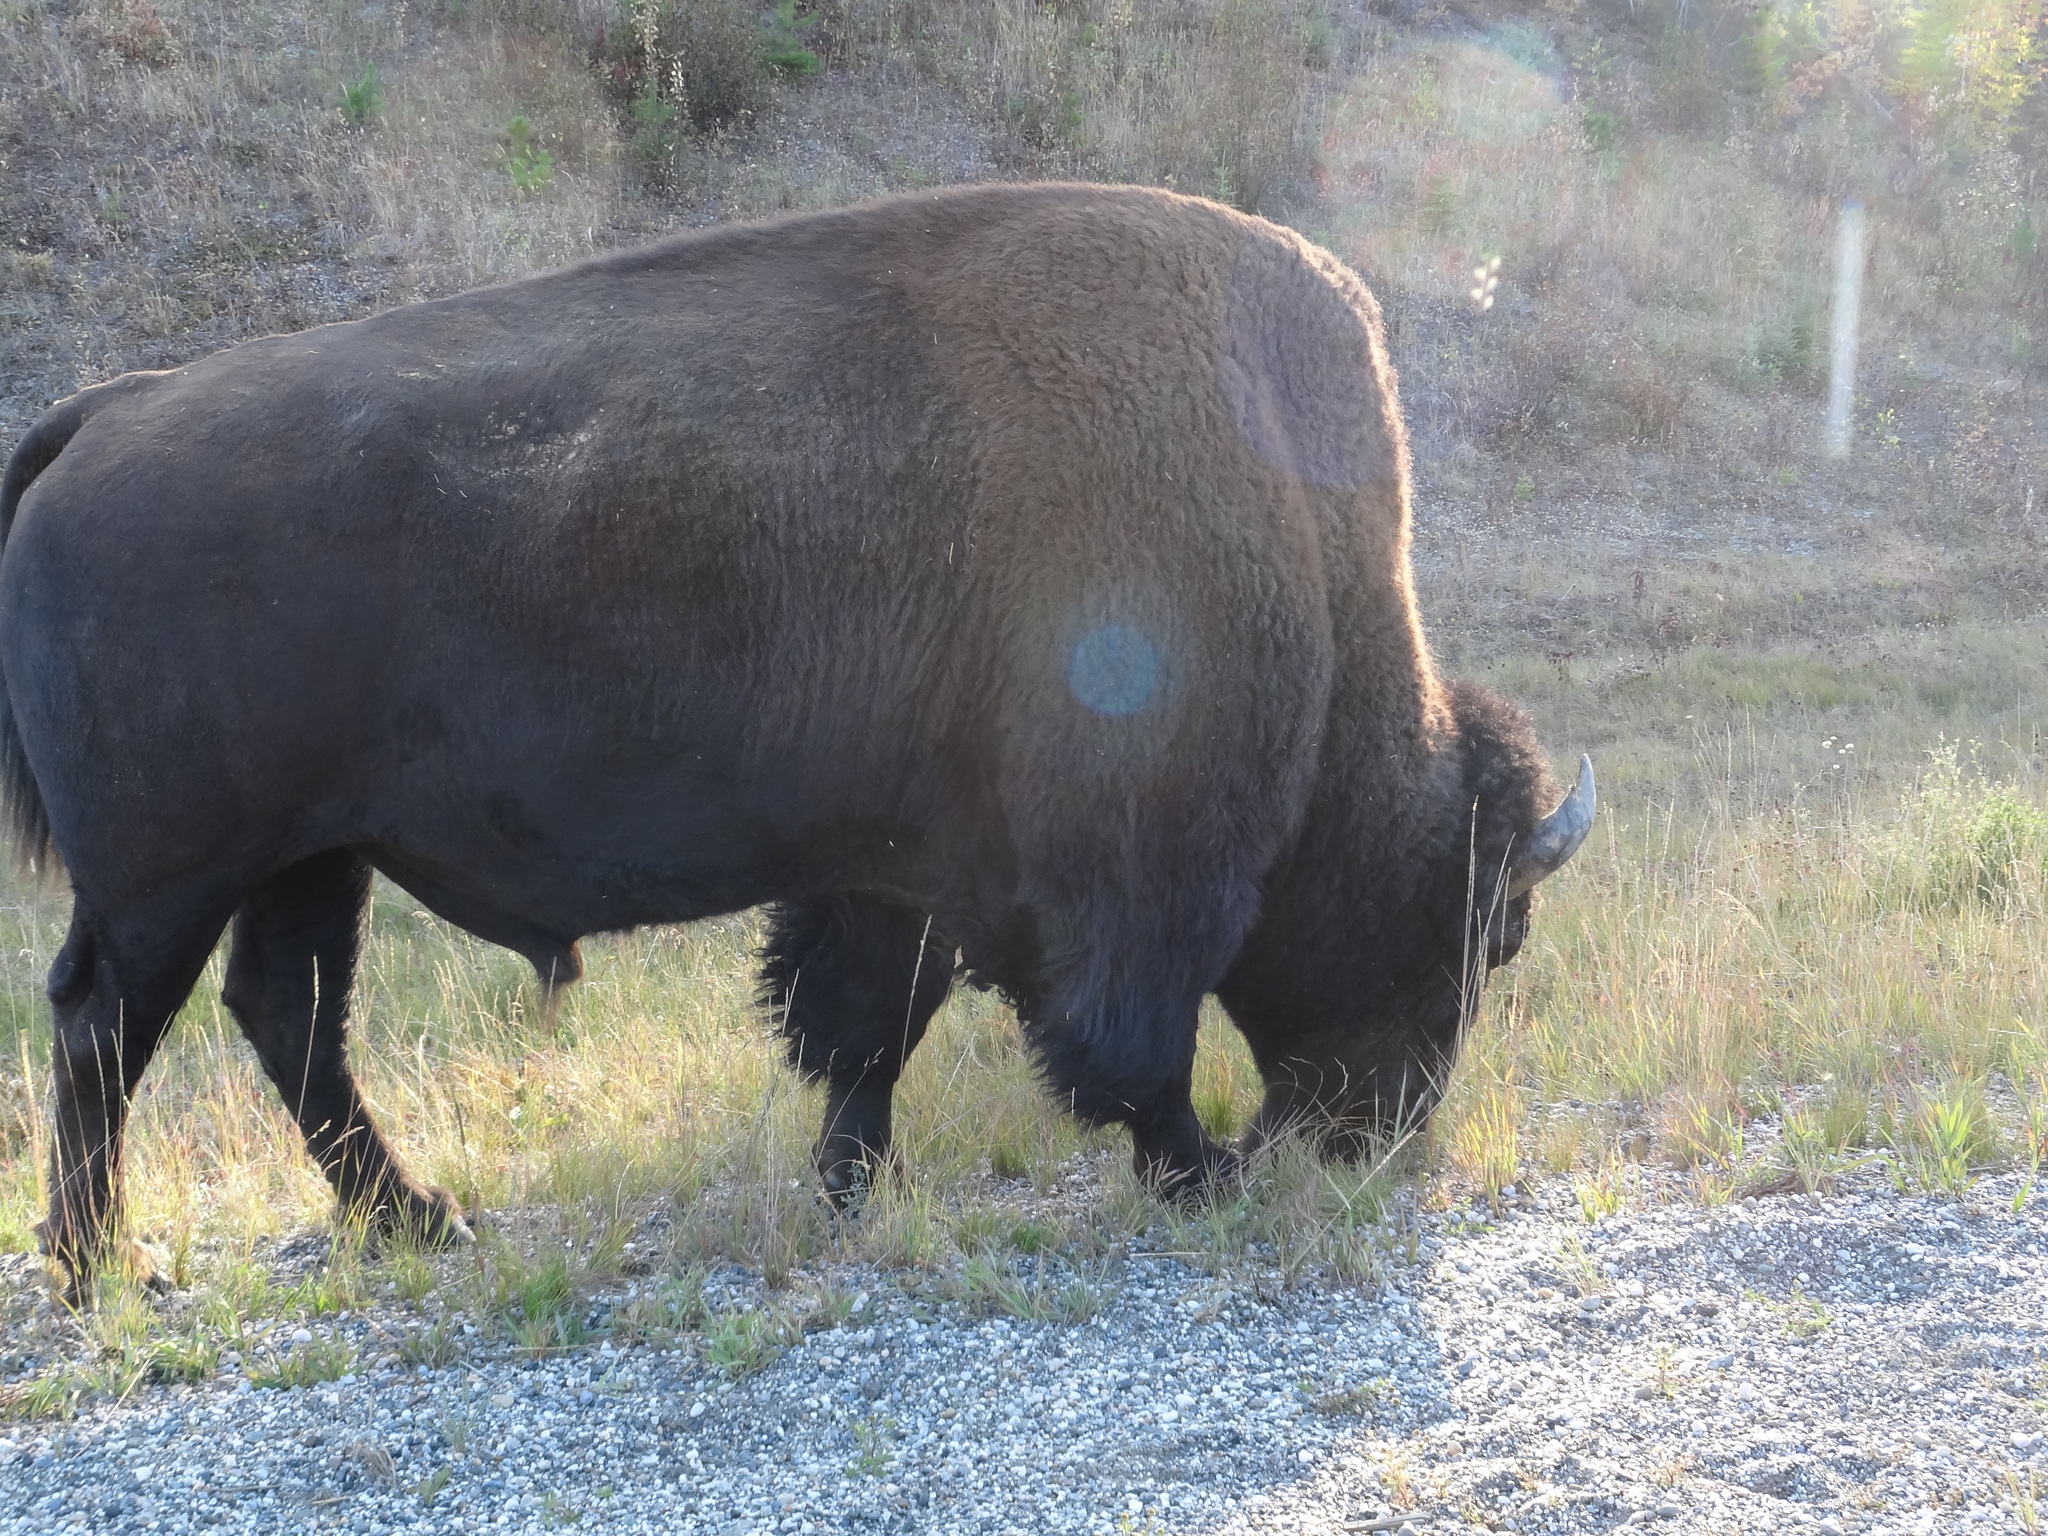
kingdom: Animalia
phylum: Chordata
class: Mammalia
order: Artiodactyla
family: Bovidae
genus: Bison
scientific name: Bison bison
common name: American bison
